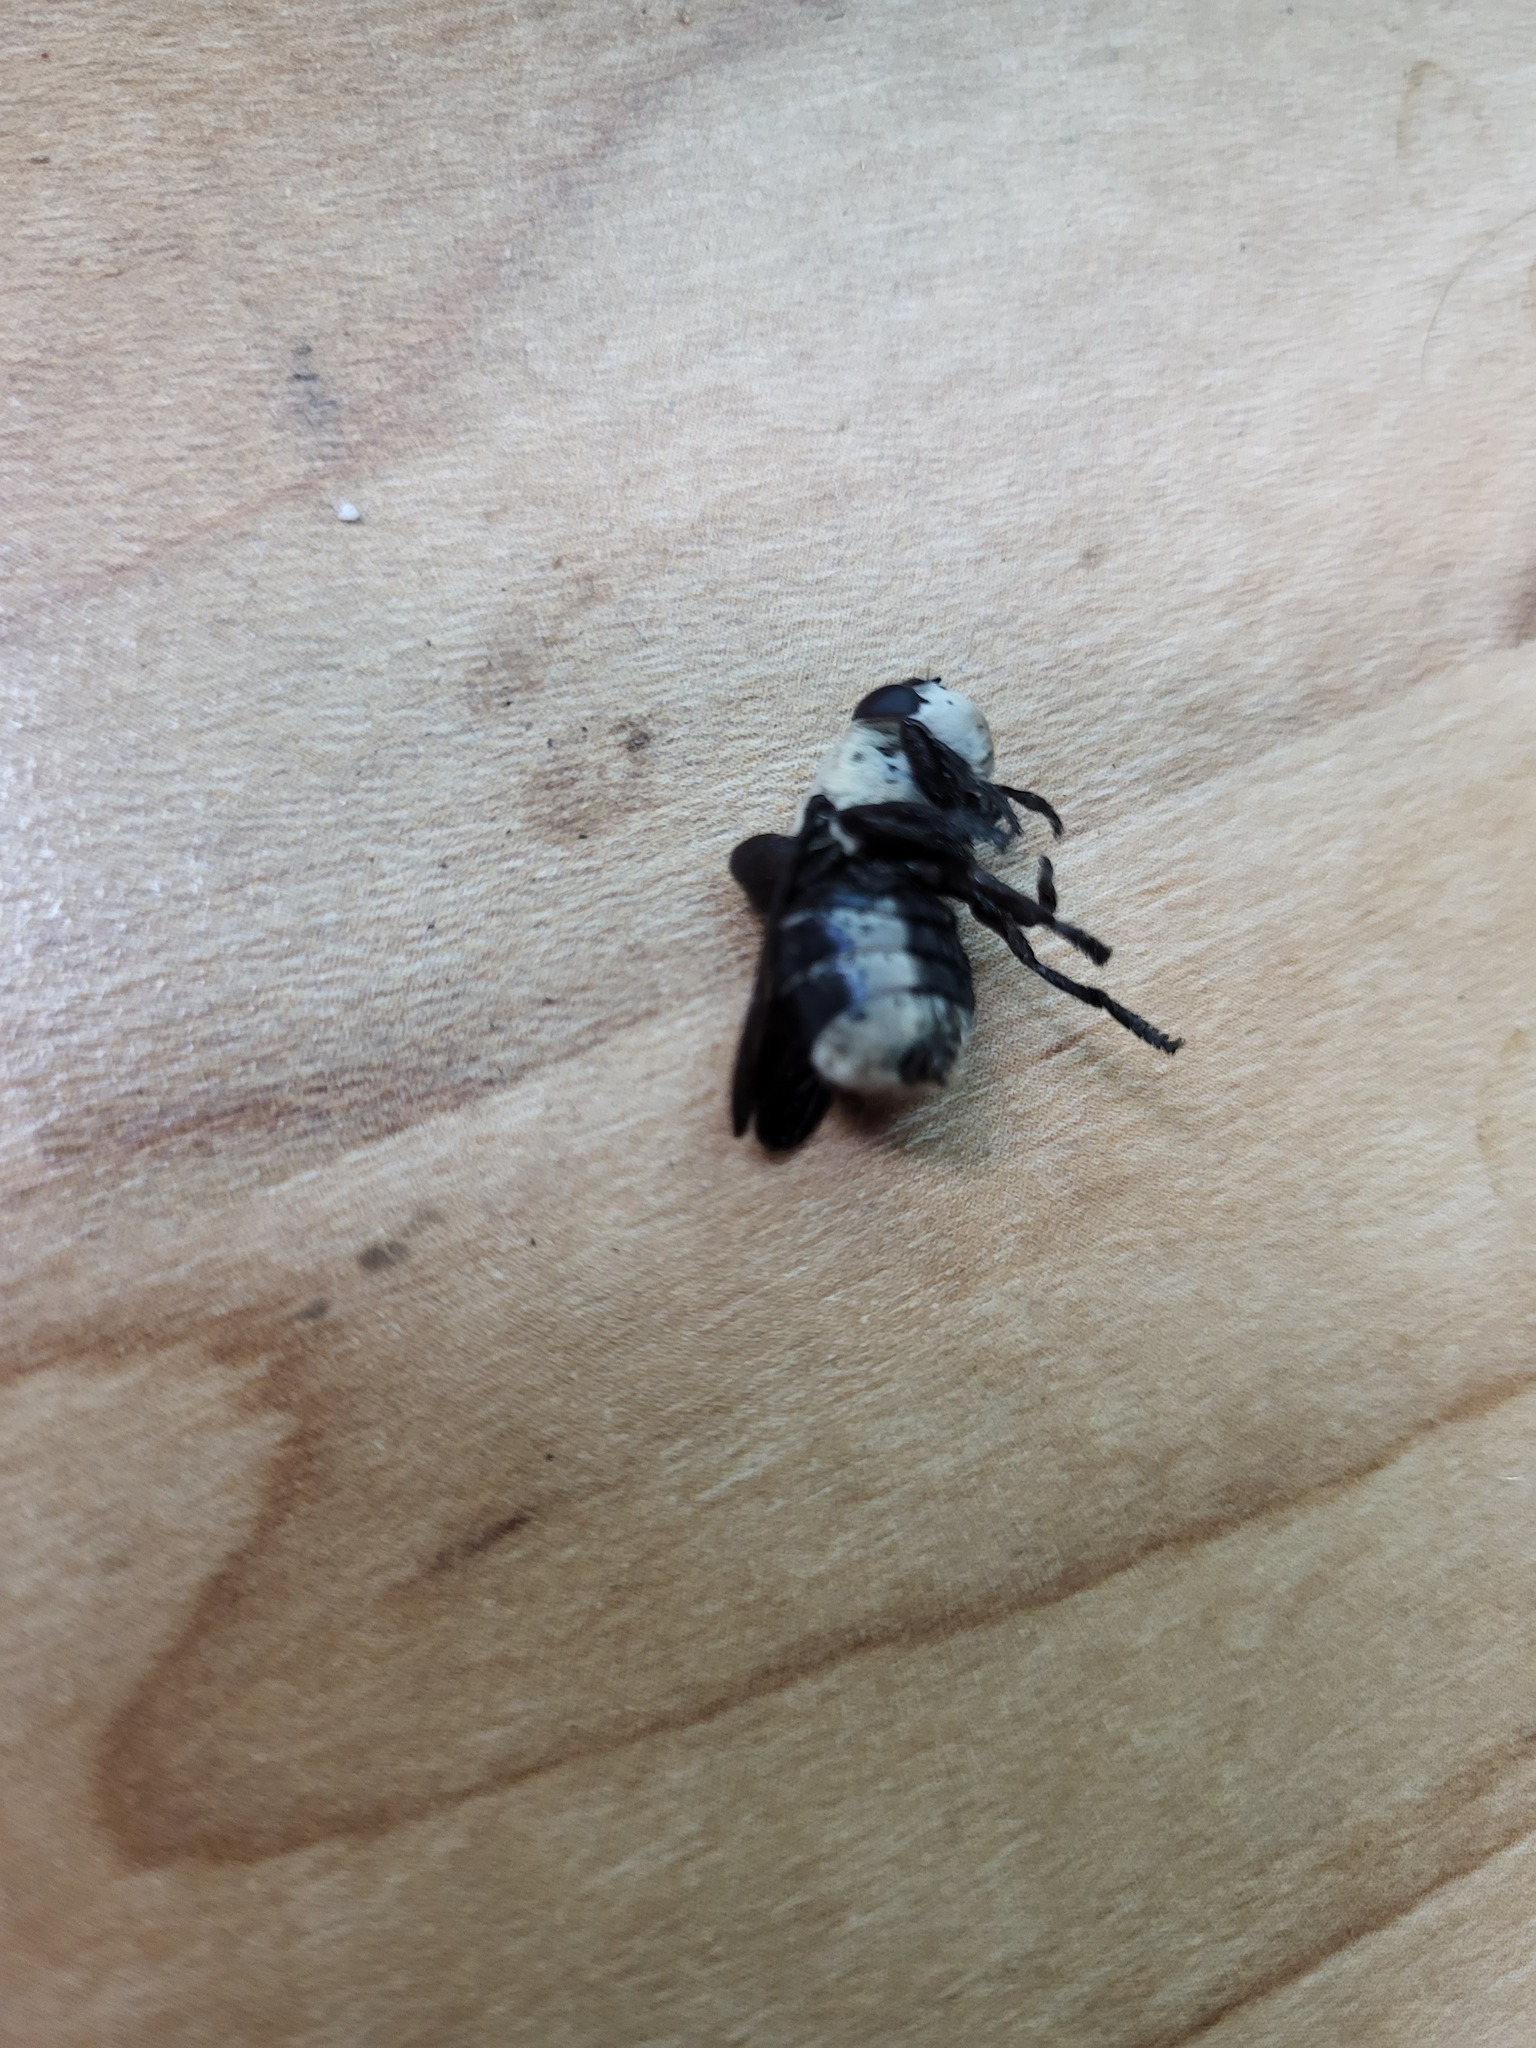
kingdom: Animalia
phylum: Arthropoda
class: Insecta
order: Diptera
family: Oestridae
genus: Cuterebra
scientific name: Cuterebra fontinella
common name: Mouse bot fly
